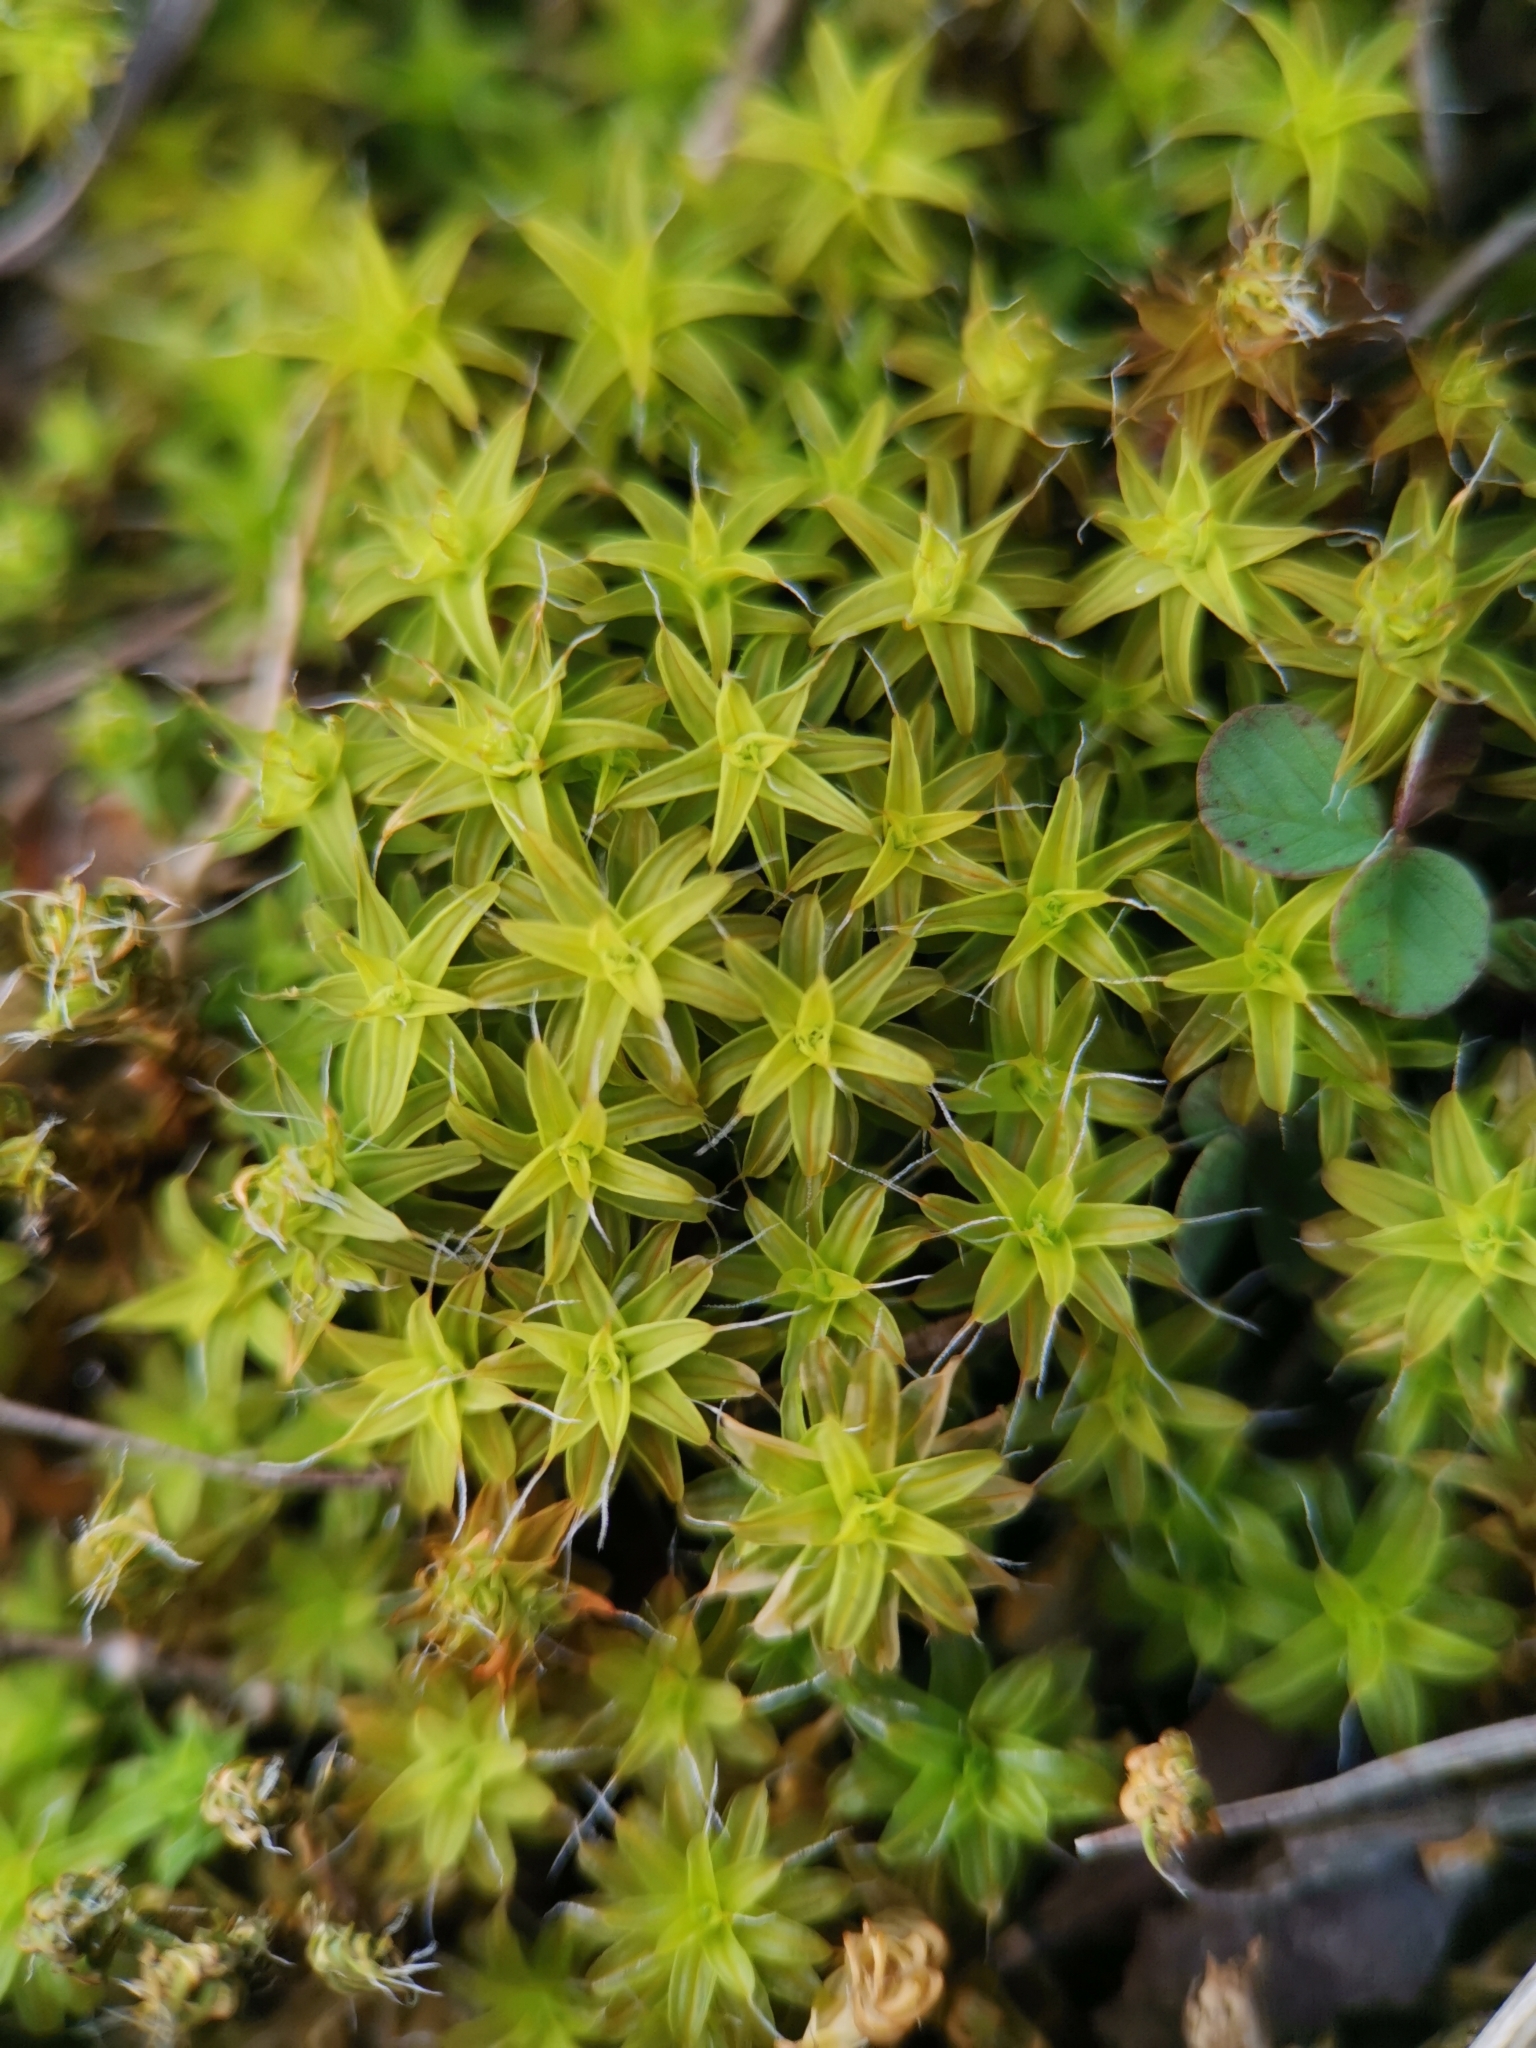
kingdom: Plantae
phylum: Bryophyta
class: Bryopsida
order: Pottiales
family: Pottiaceae
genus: Syntrichia
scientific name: Syntrichia ruralis
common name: Sidewalk screw moss
